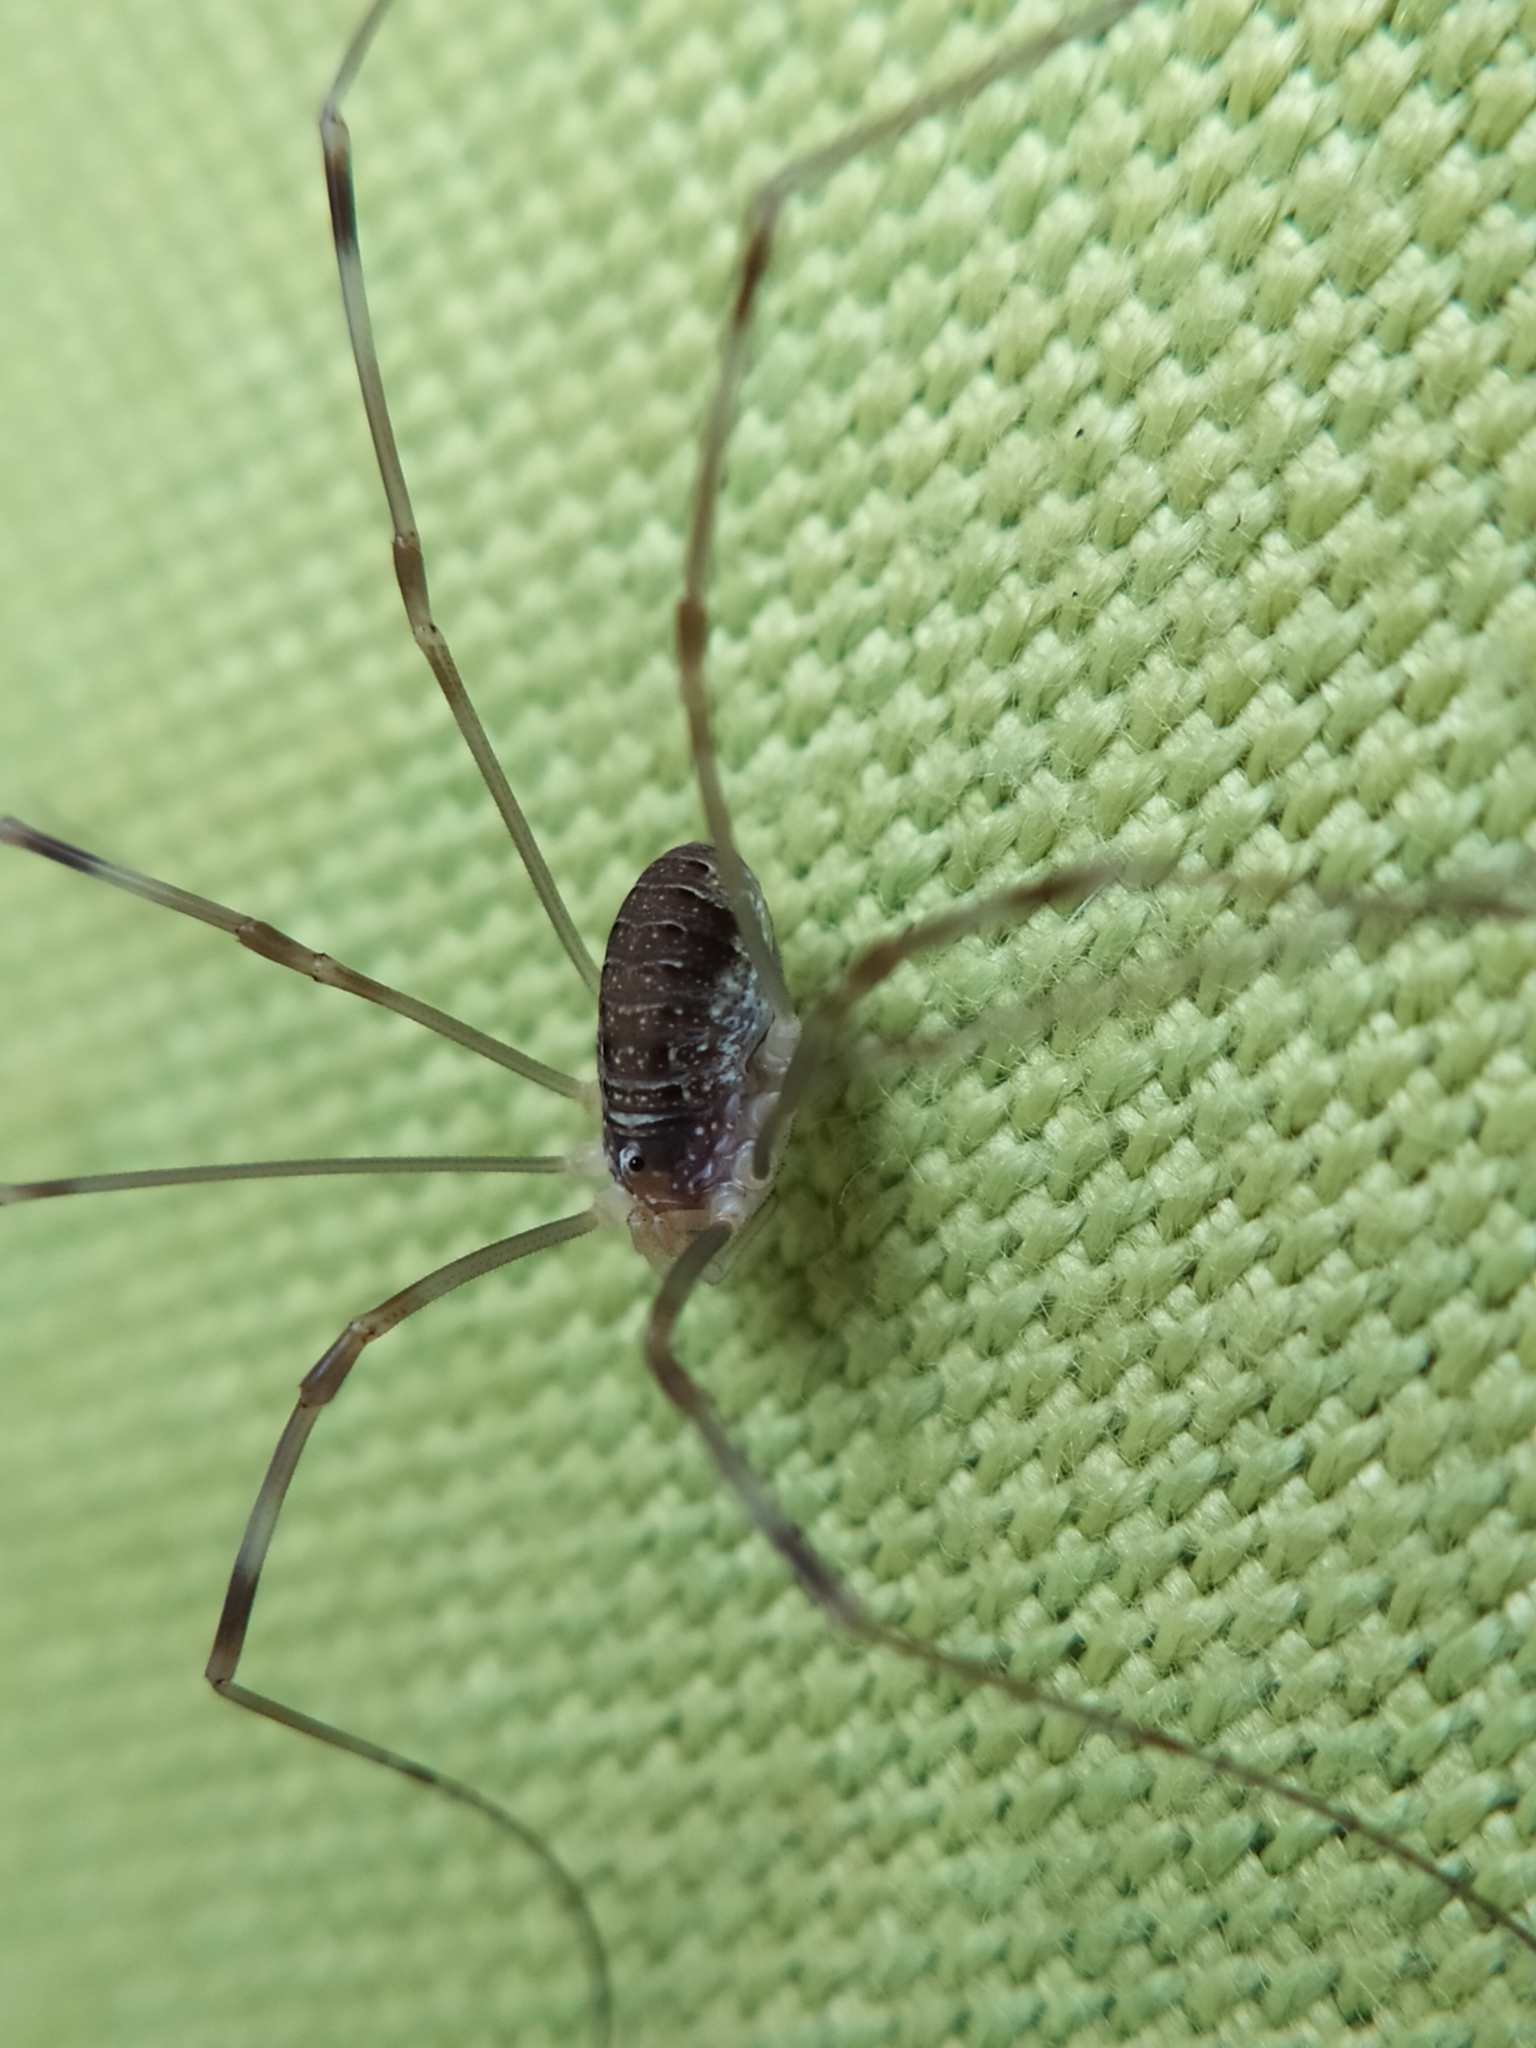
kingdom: Animalia
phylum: Arthropoda
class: Arachnida
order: Opiliones
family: Phalangiidae
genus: Opilio
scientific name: Opilio canestrinii
